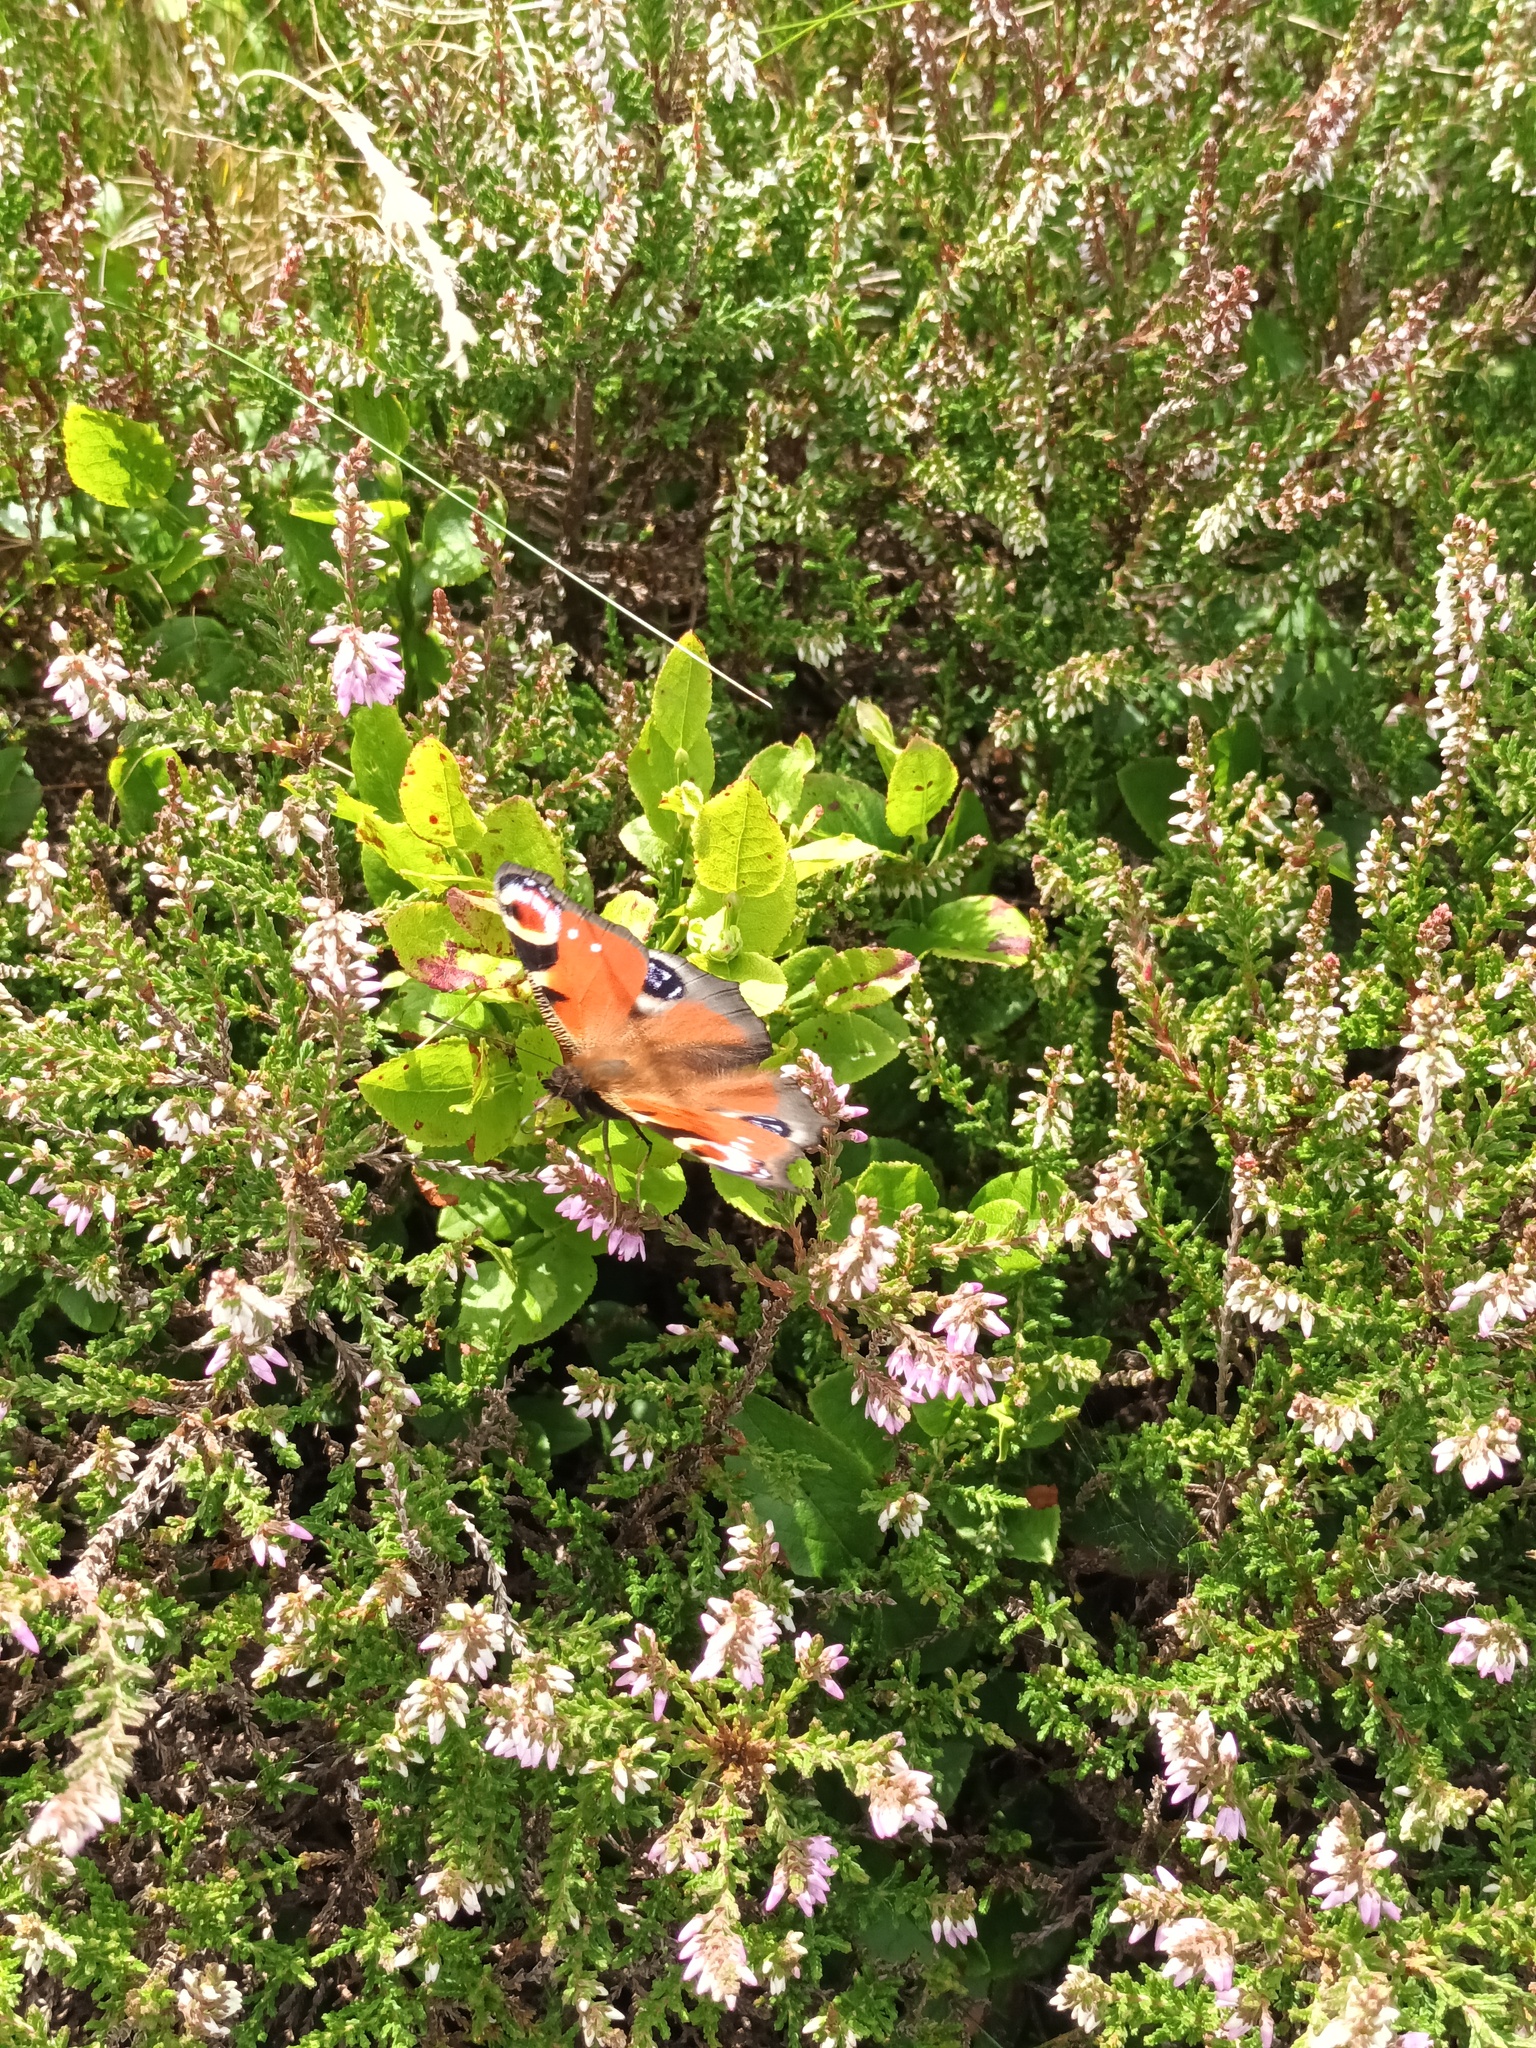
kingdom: Animalia
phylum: Arthropoda
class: Insecta
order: Lepidoptera
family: Nymphalidae
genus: Aglais
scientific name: Aglais io
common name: Peacock
